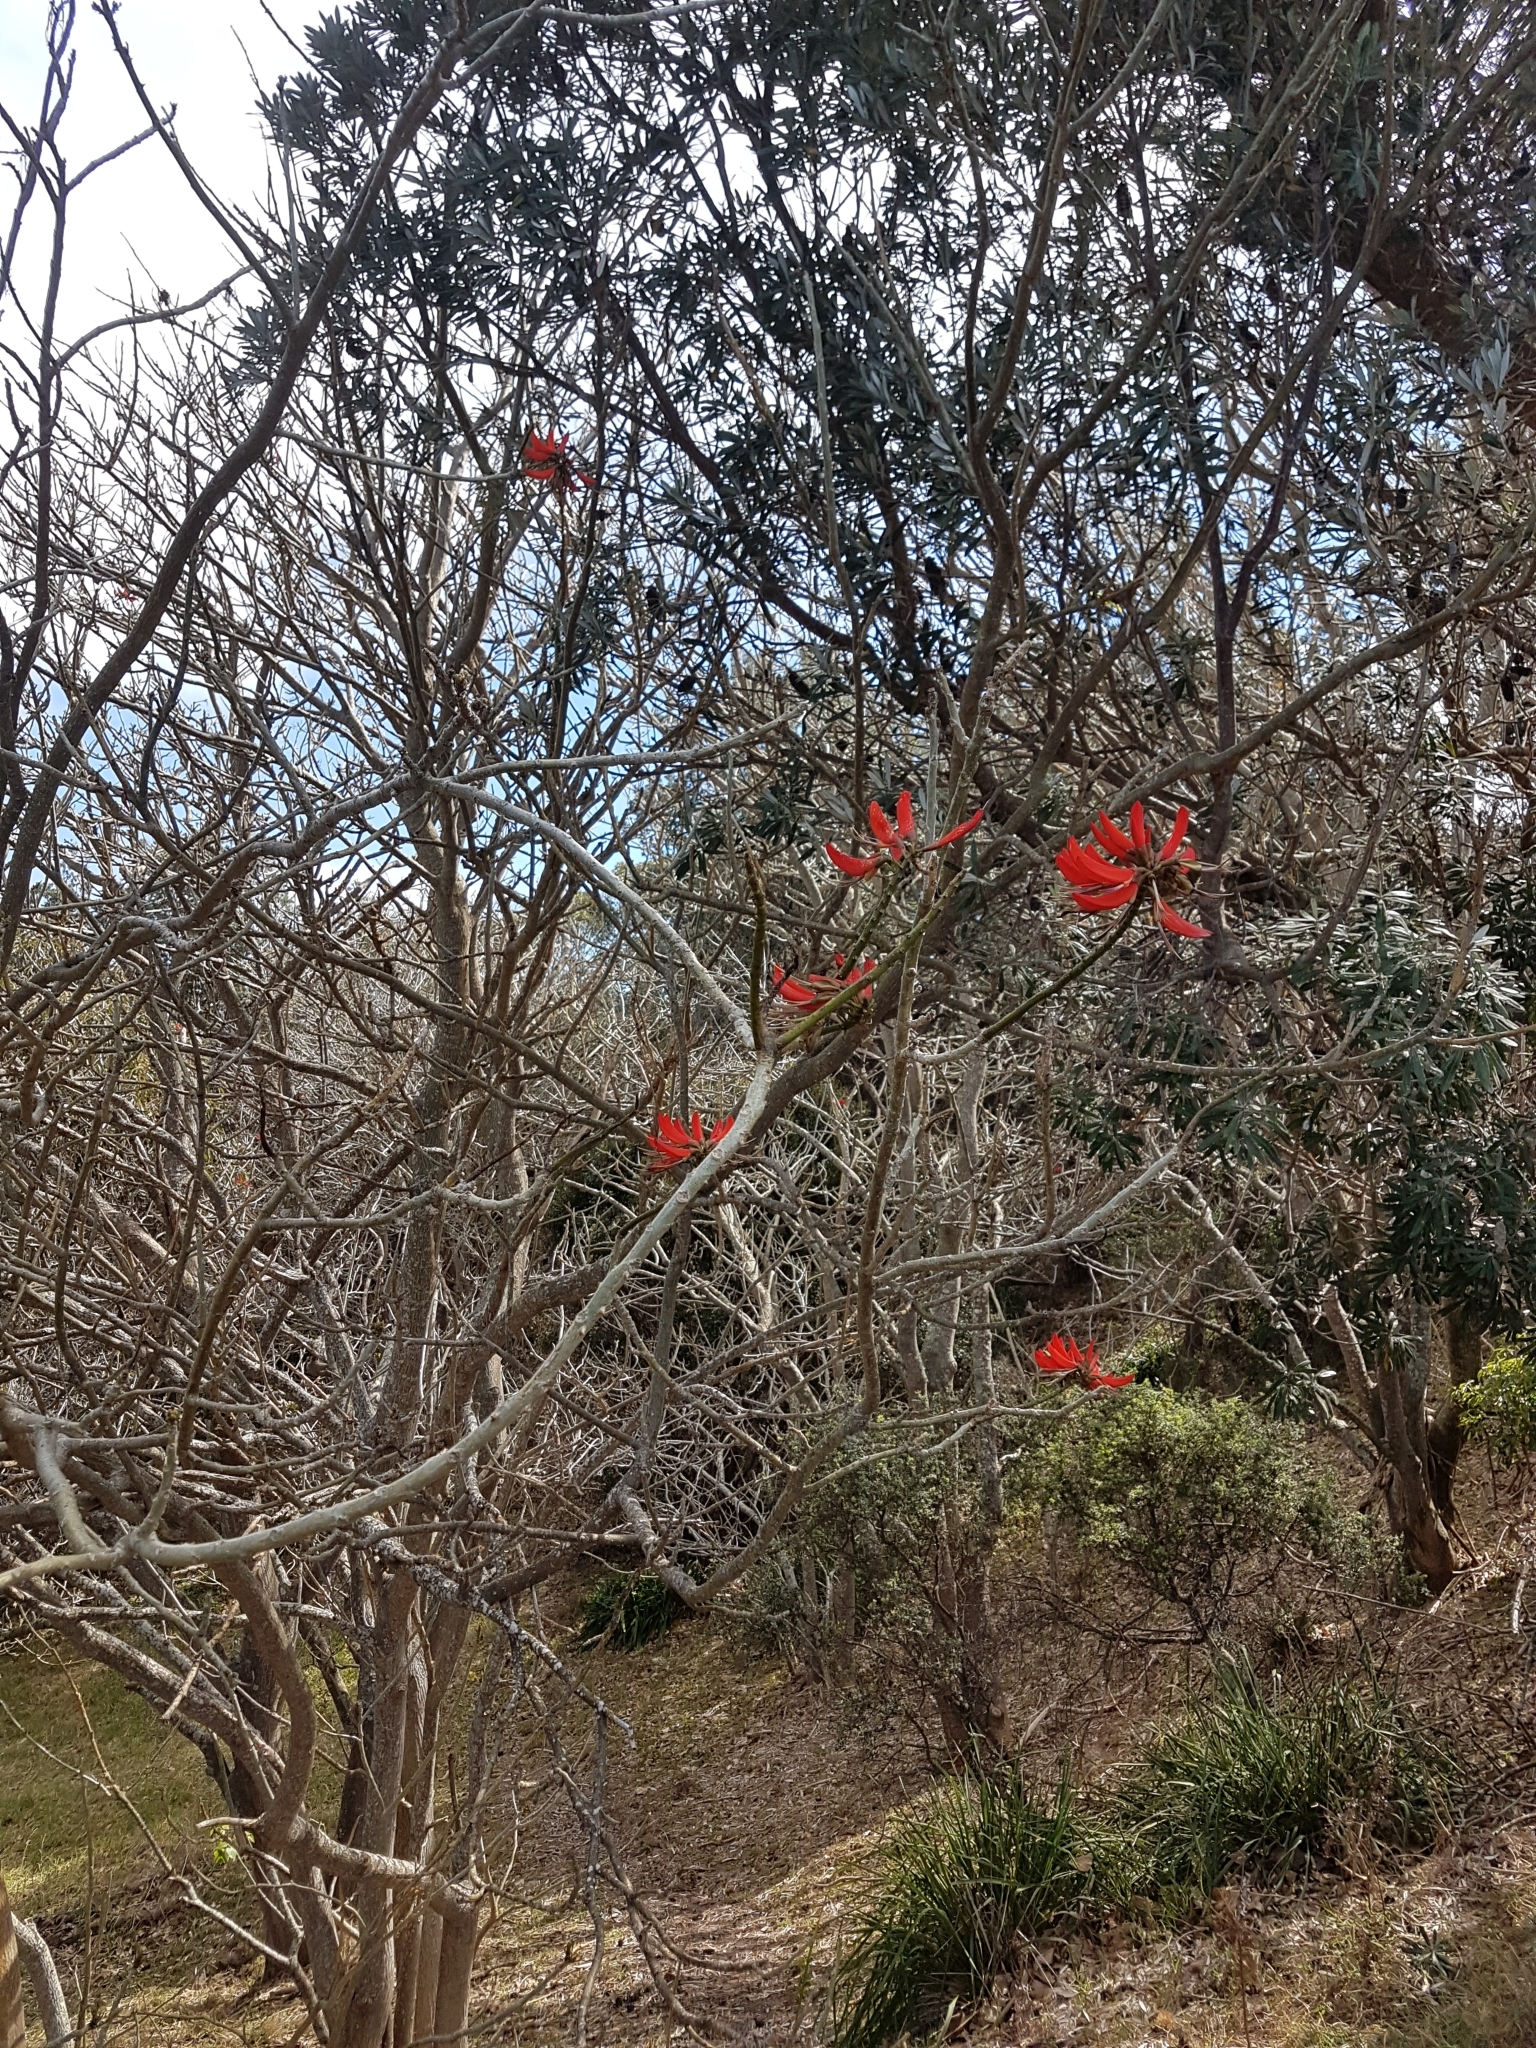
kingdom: Plantae
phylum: Tracheophyta
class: Magnoliopsida
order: Fabales
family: Fabaceae
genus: Erythrina
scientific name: Erythrina sykesii
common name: Coraltree
